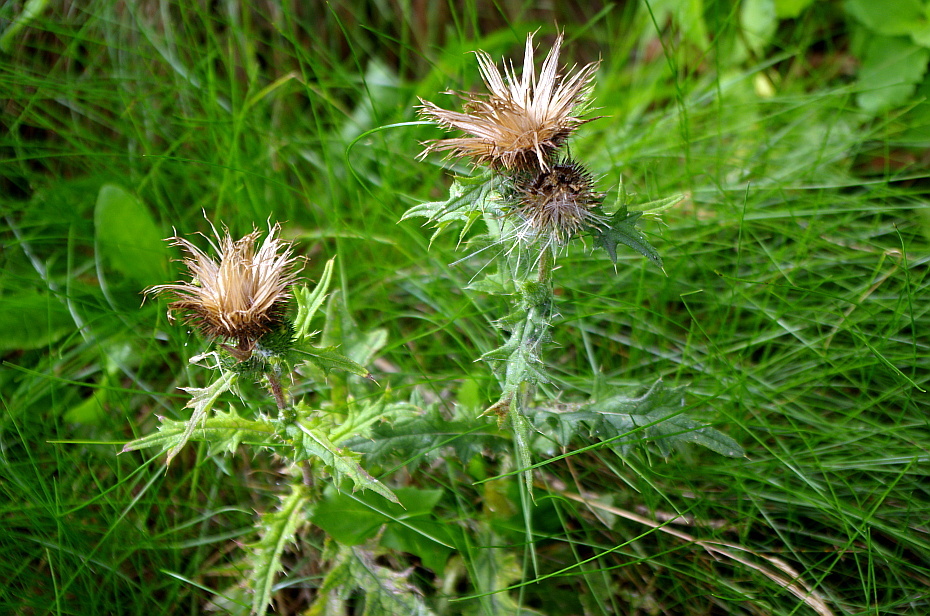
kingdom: Plantae
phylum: Tracheophyta
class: Magnoliopsida
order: Asterales
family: Asteraceae
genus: Cirsium
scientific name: Cirsium vulgare
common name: Bull thistle
